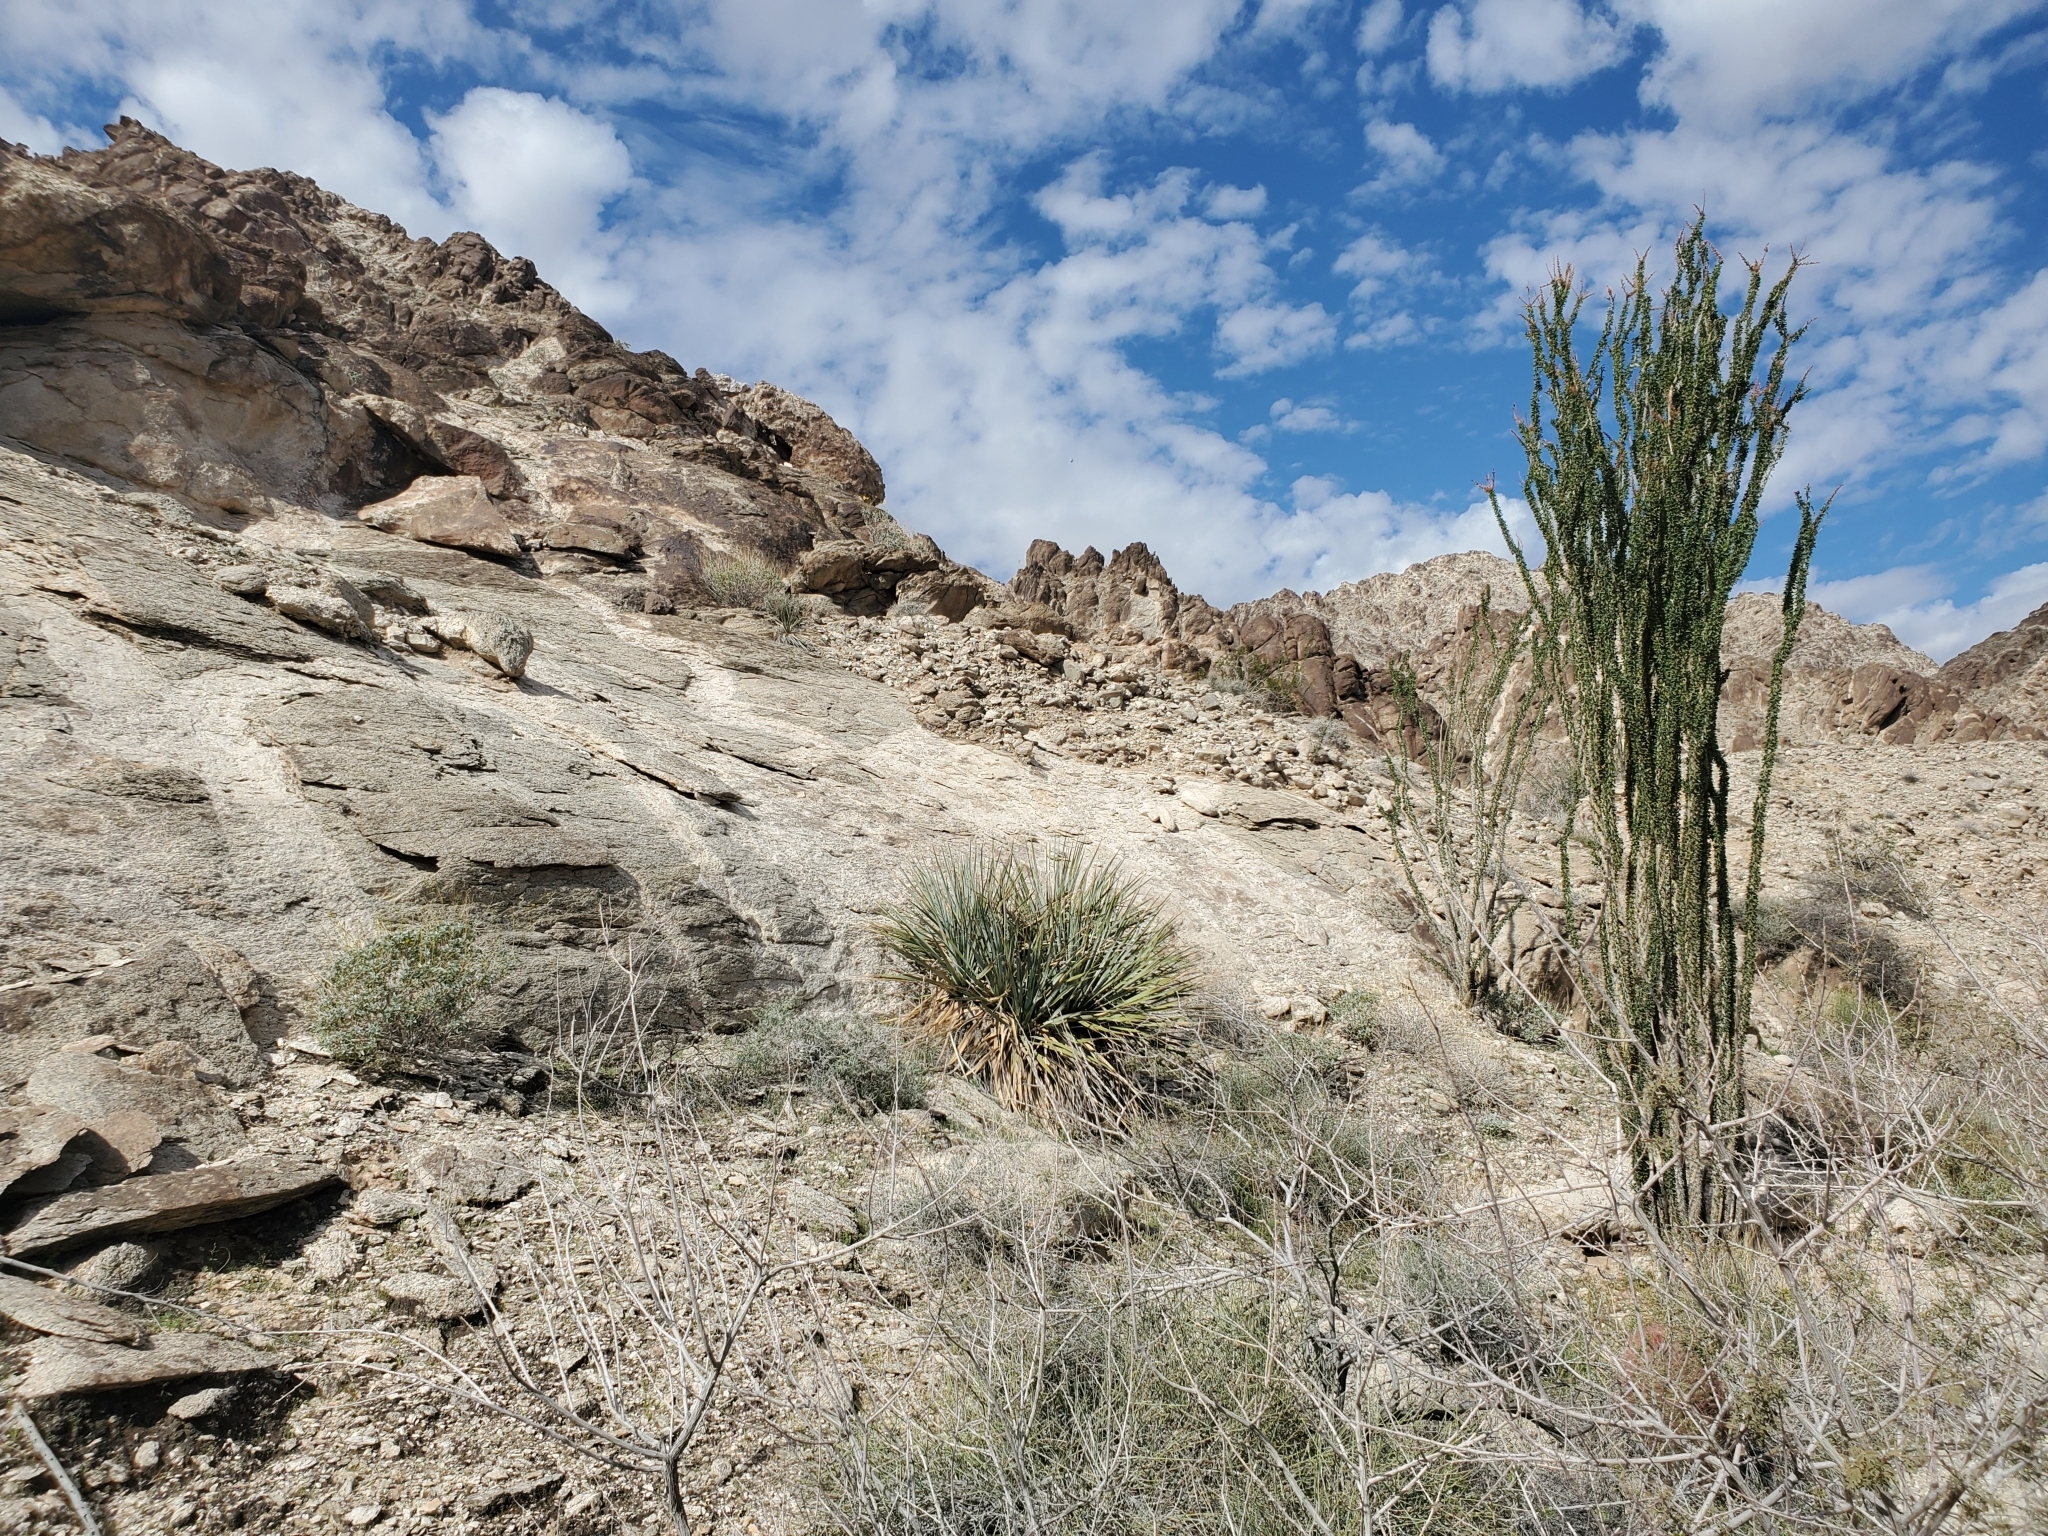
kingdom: Plantae
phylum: Tracheophyta
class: Magnoliopsida
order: Ericales
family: Fouquieriaceae
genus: Fouquieria
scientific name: Fouquieria splendens
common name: Vine-cactus
